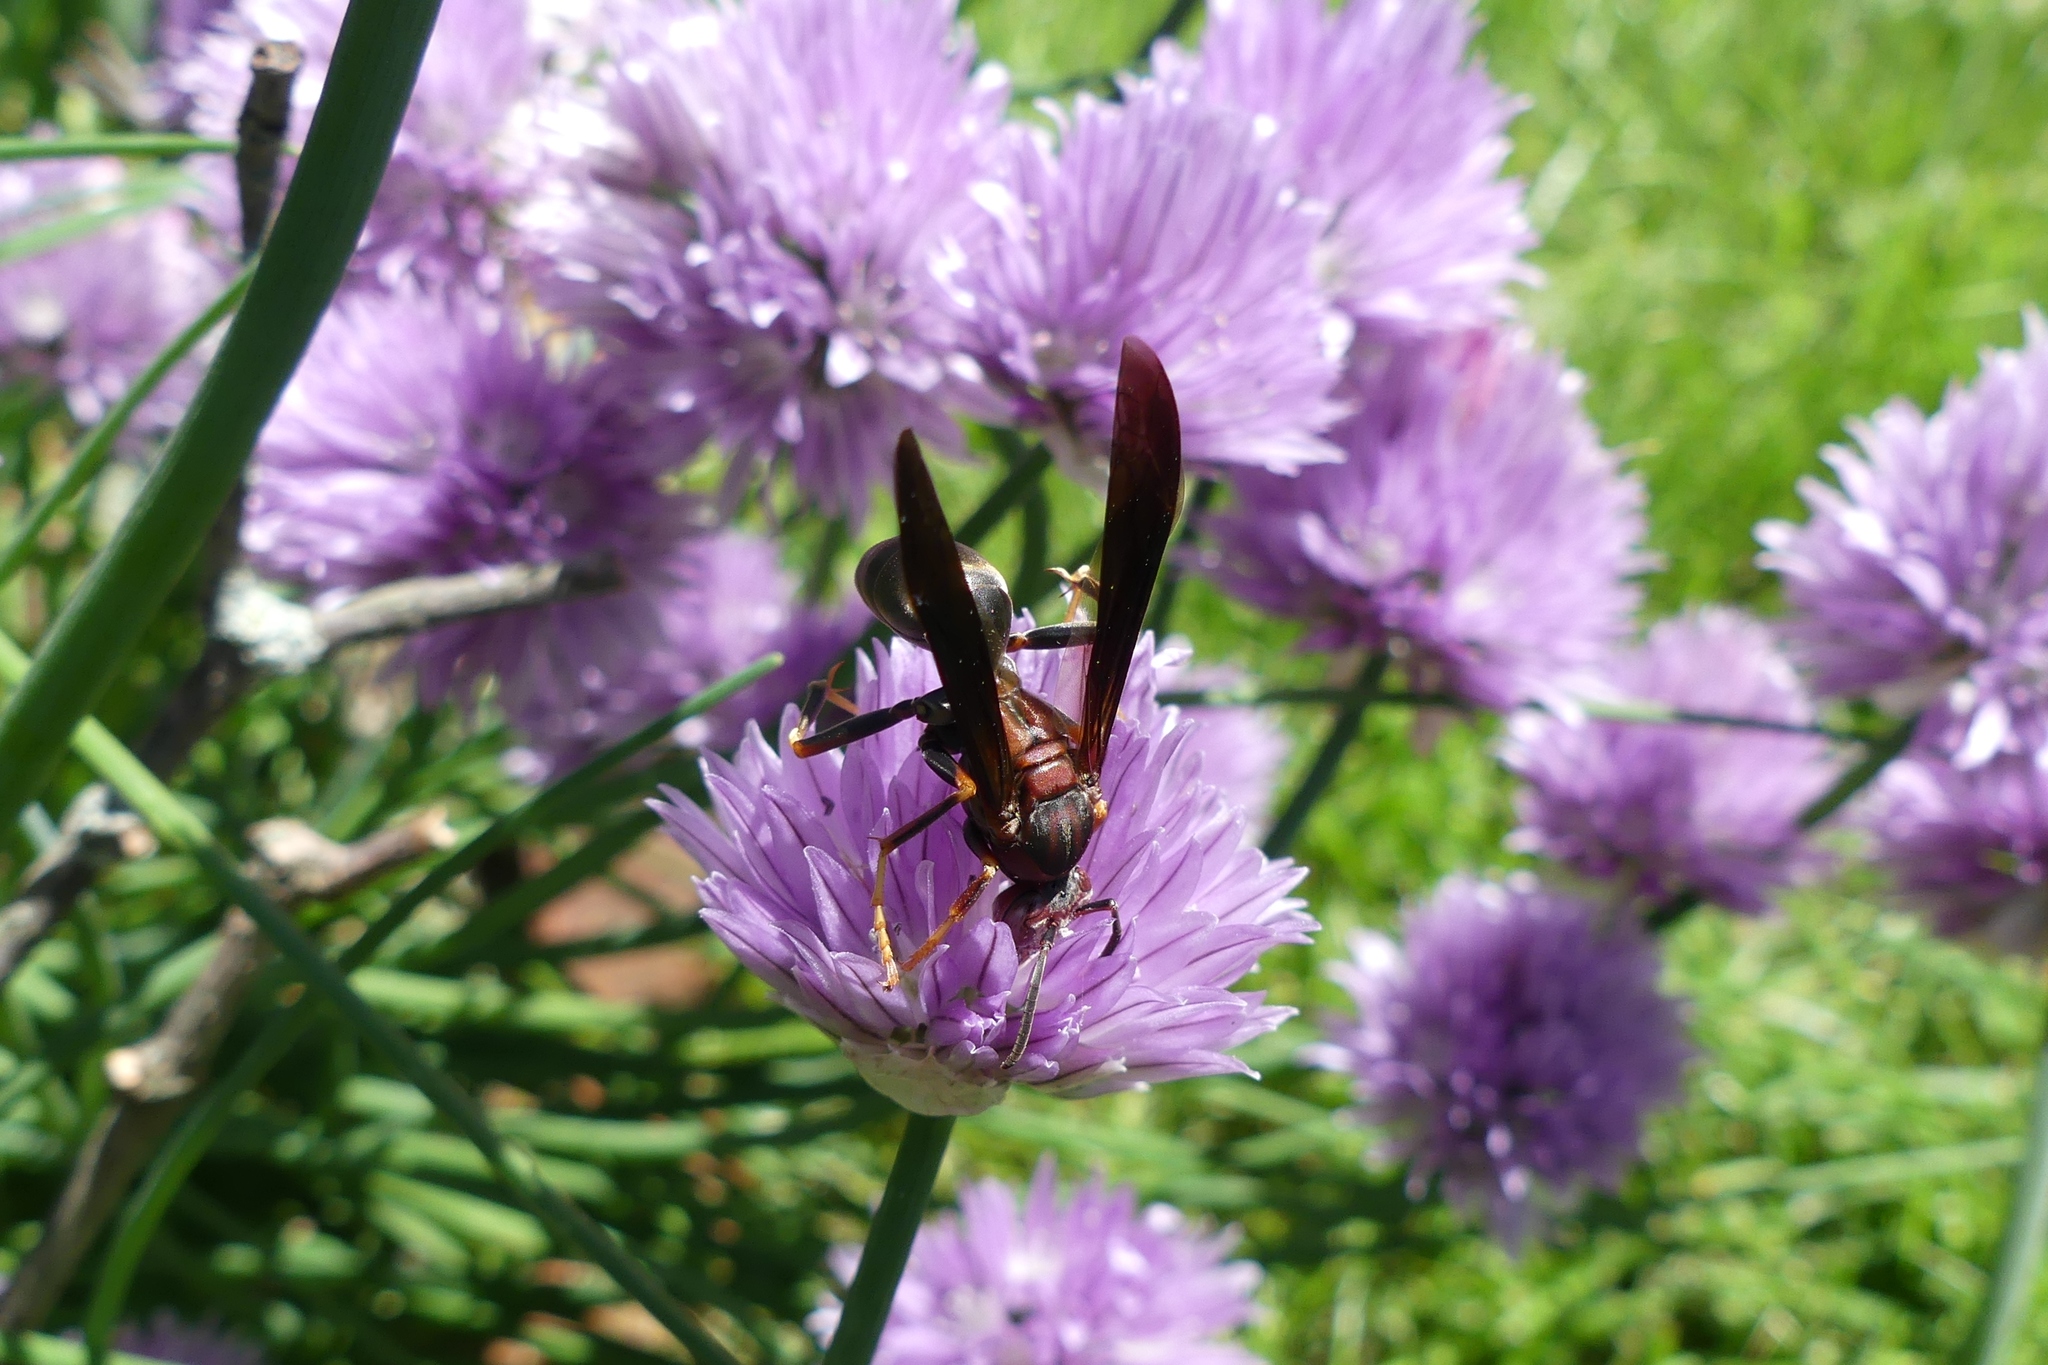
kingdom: Animalia
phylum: Arthropoda
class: Insecta
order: Hymenoptera
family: Eumenidae
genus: Polistes
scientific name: Polistes metricus
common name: Metric paper wasp
